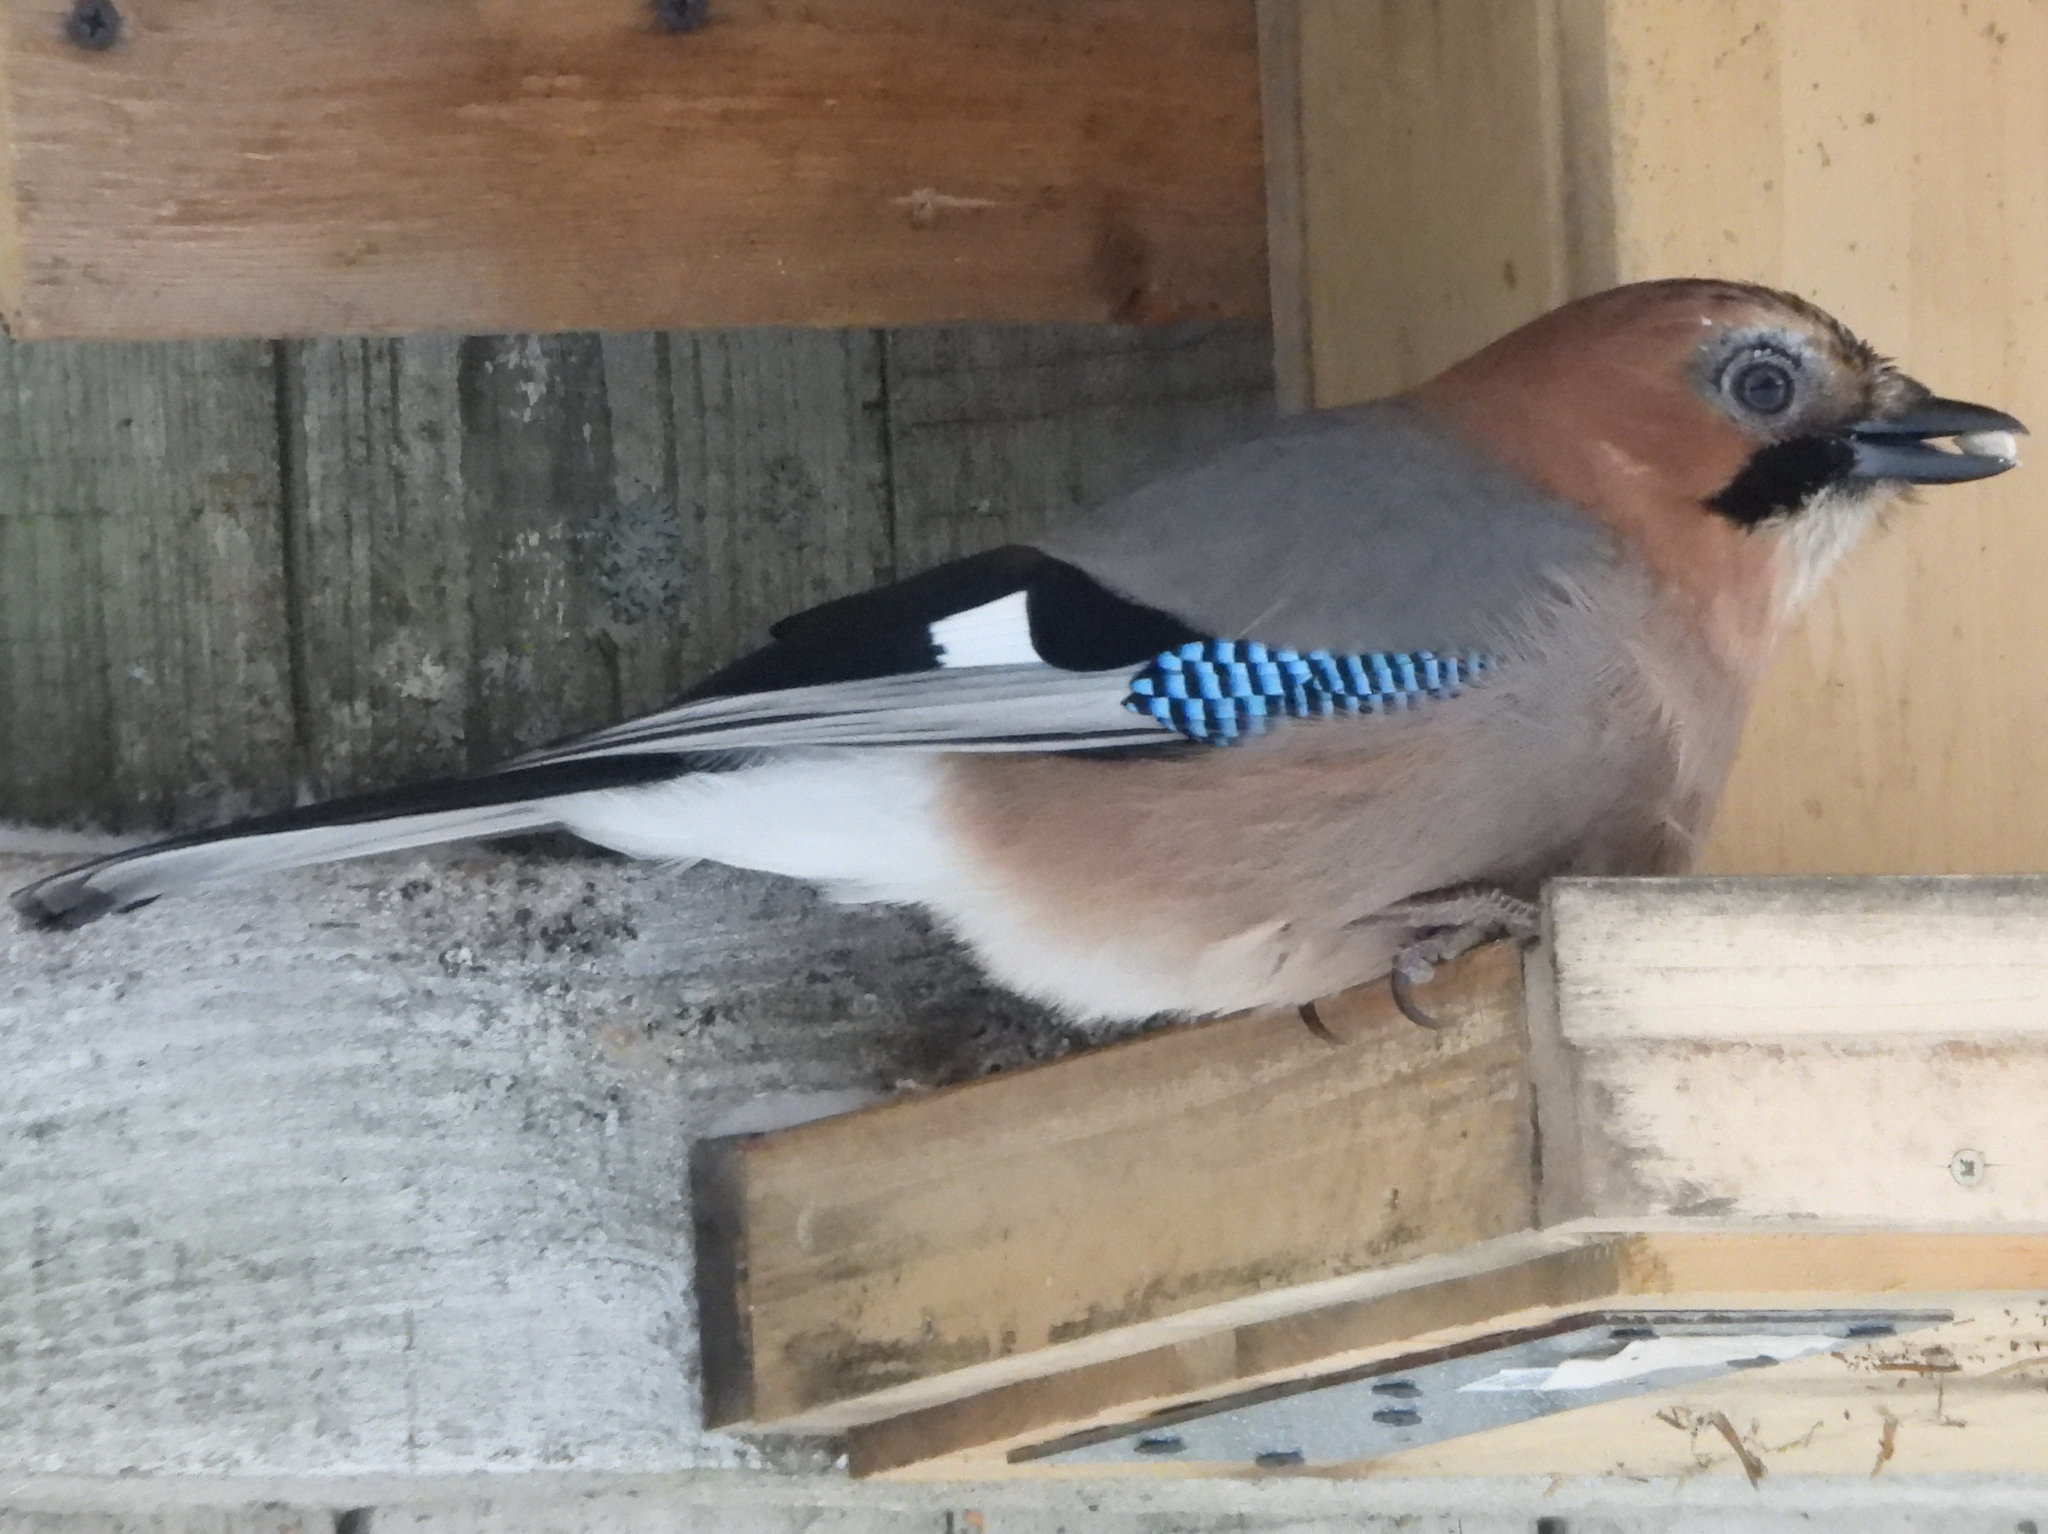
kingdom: Animalia
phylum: Chordata
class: Aves
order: Passeriformes
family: Corvidae
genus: Garrulus
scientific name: Garrulus glandarius
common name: Eurasian jay
